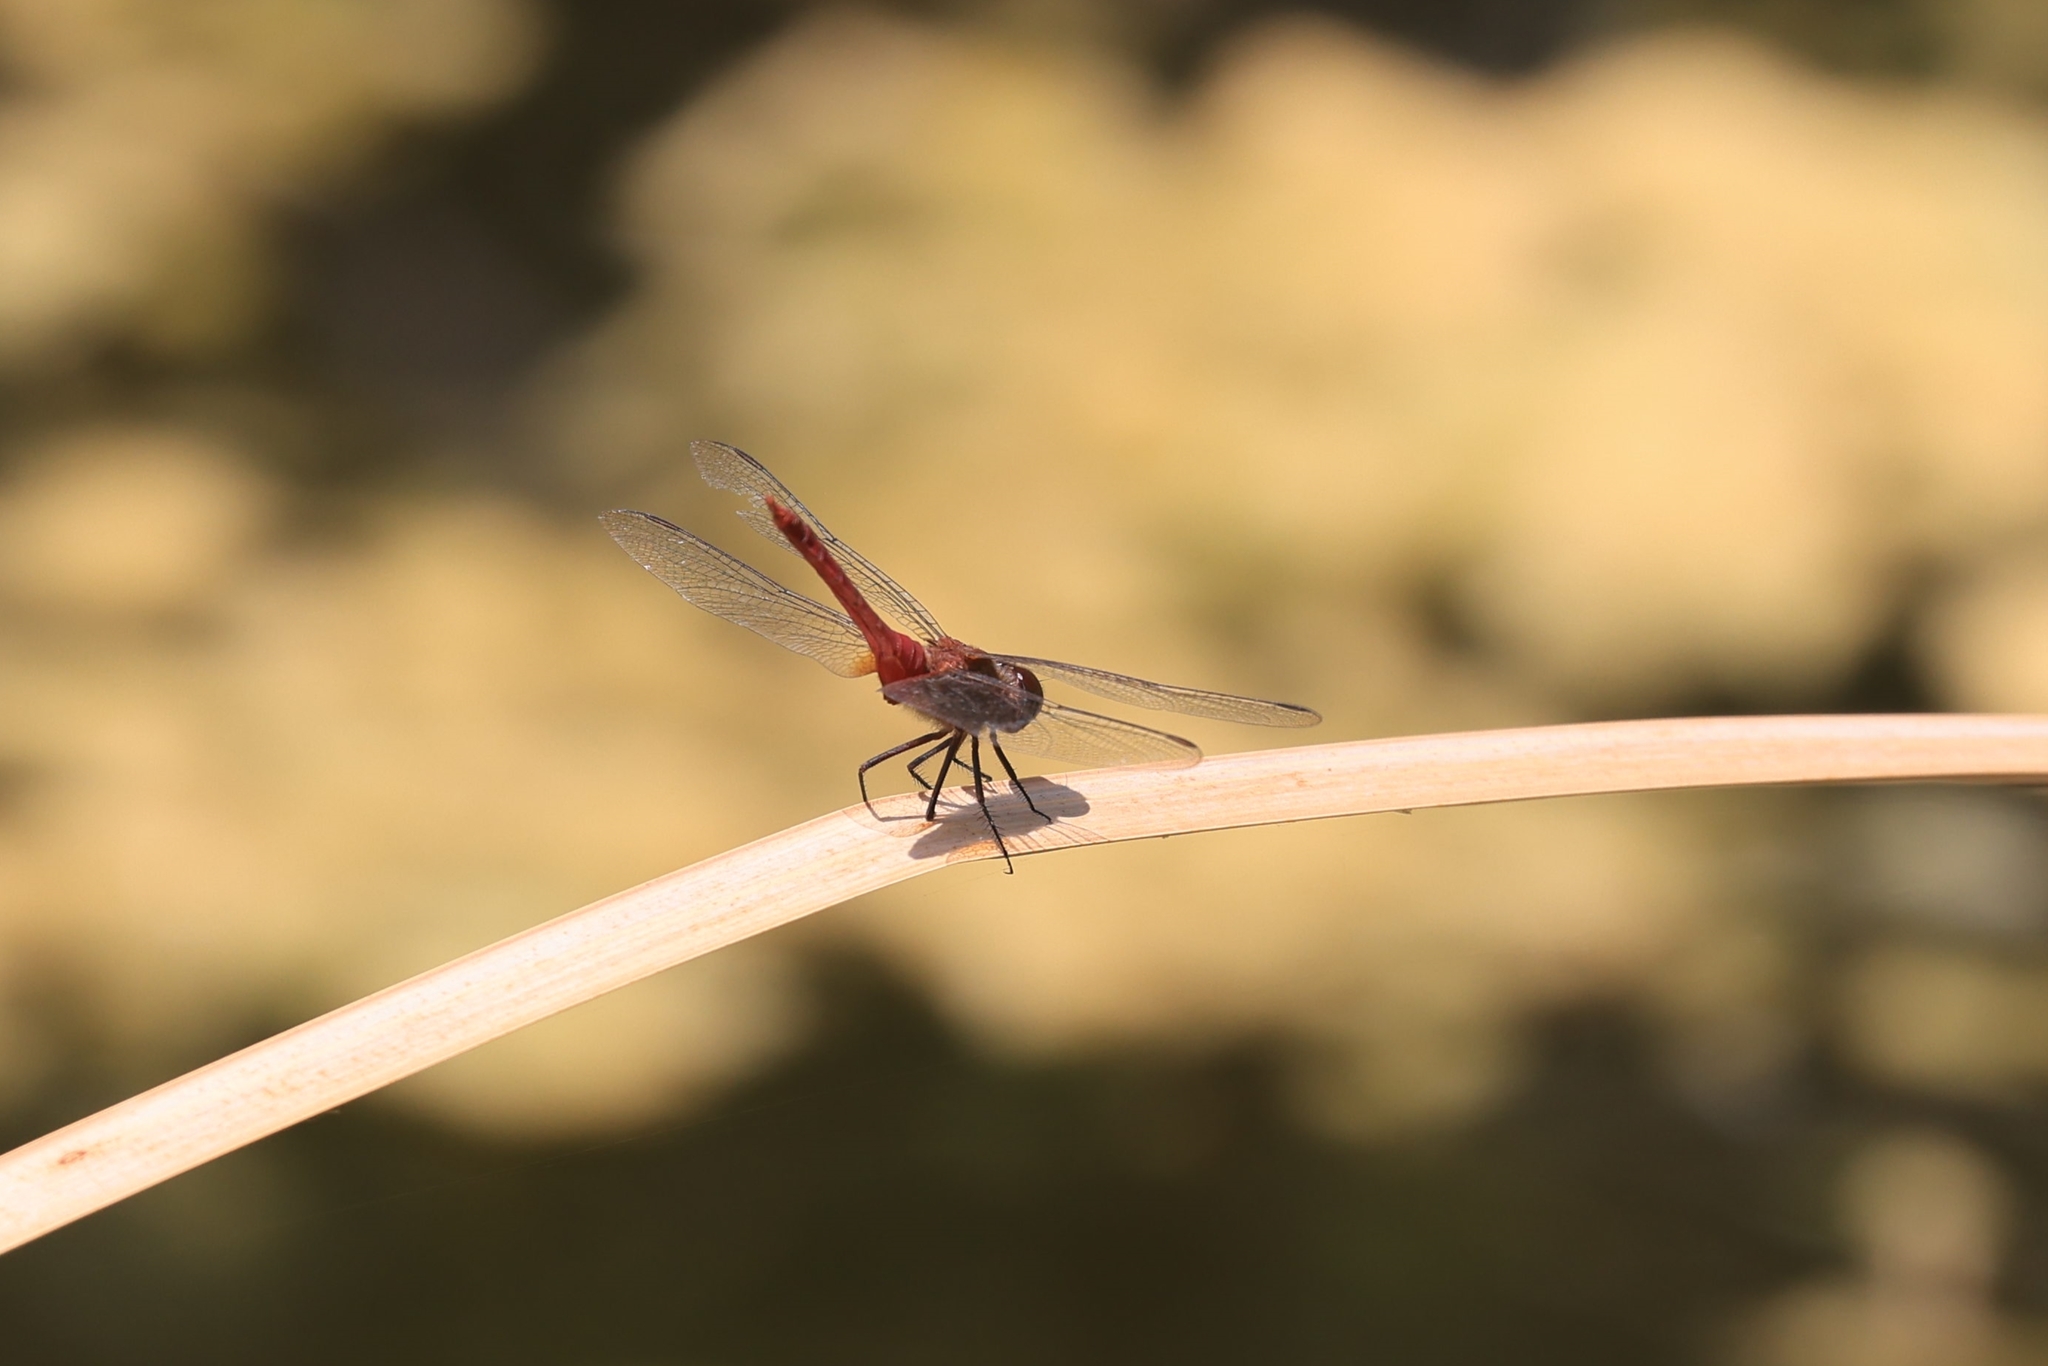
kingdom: Animalia
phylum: Arthropoda
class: Insecta
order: Odonata
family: Libellulidae
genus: Brachymesia
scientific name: Brachymesia furcata
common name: Red-taled pennant
